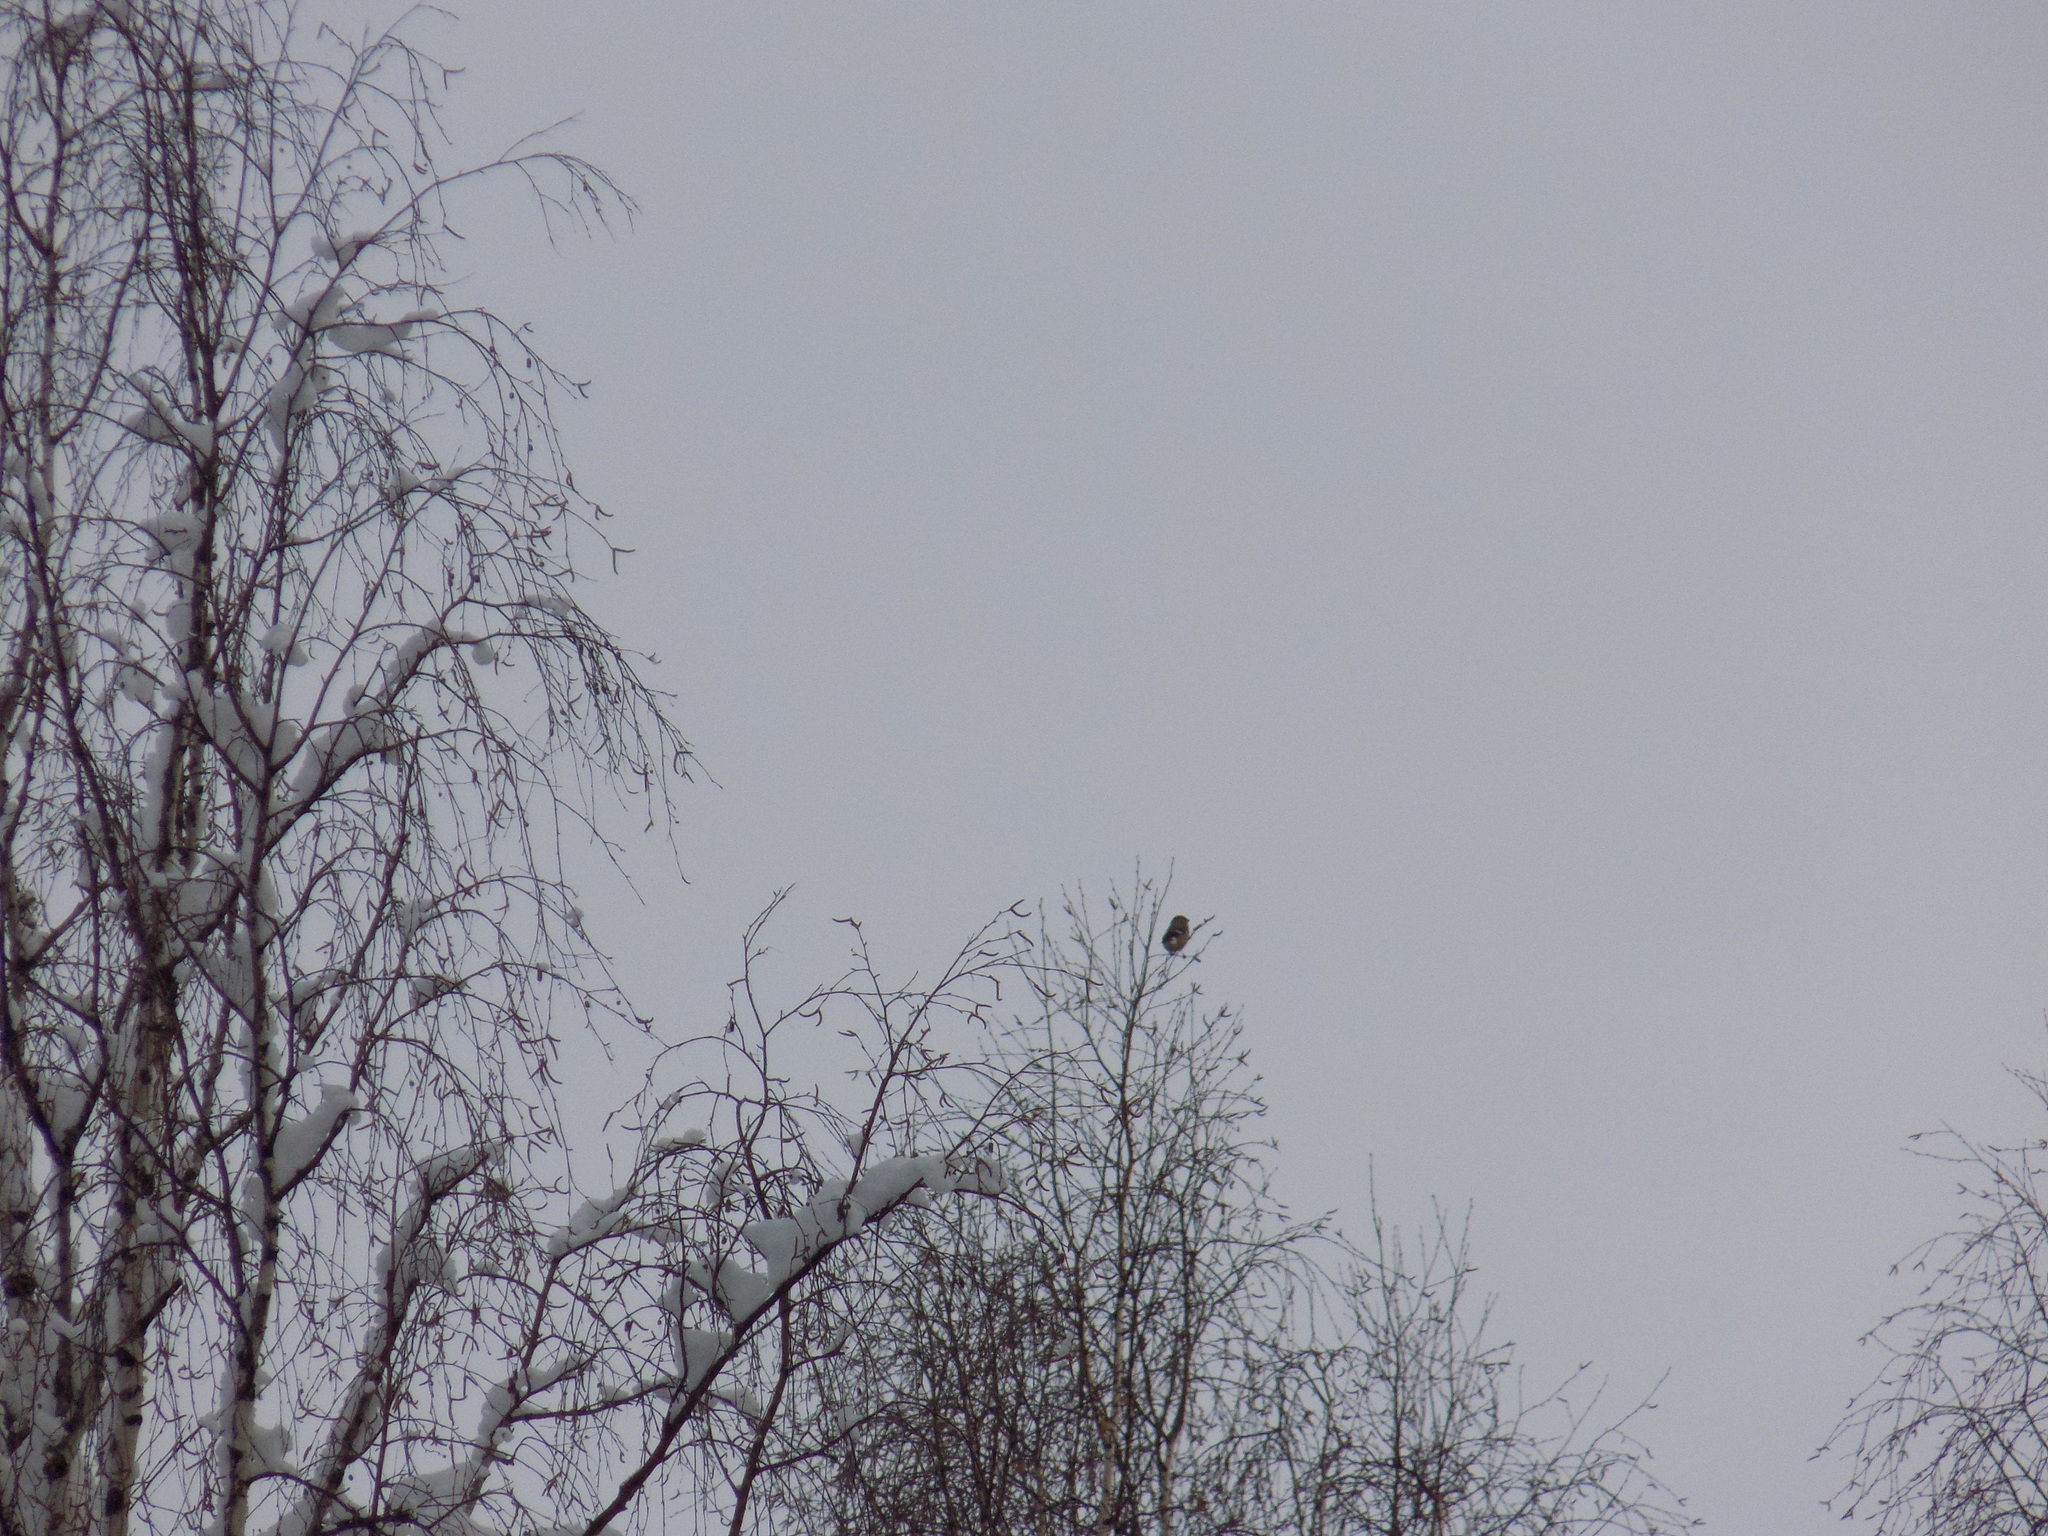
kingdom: Animalia
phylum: Chordata
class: Aves
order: Passeriformes
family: Fringillidae
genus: Pyrrhula
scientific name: Pyrrhula pyrrhula
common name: Eurasian bullfinch
